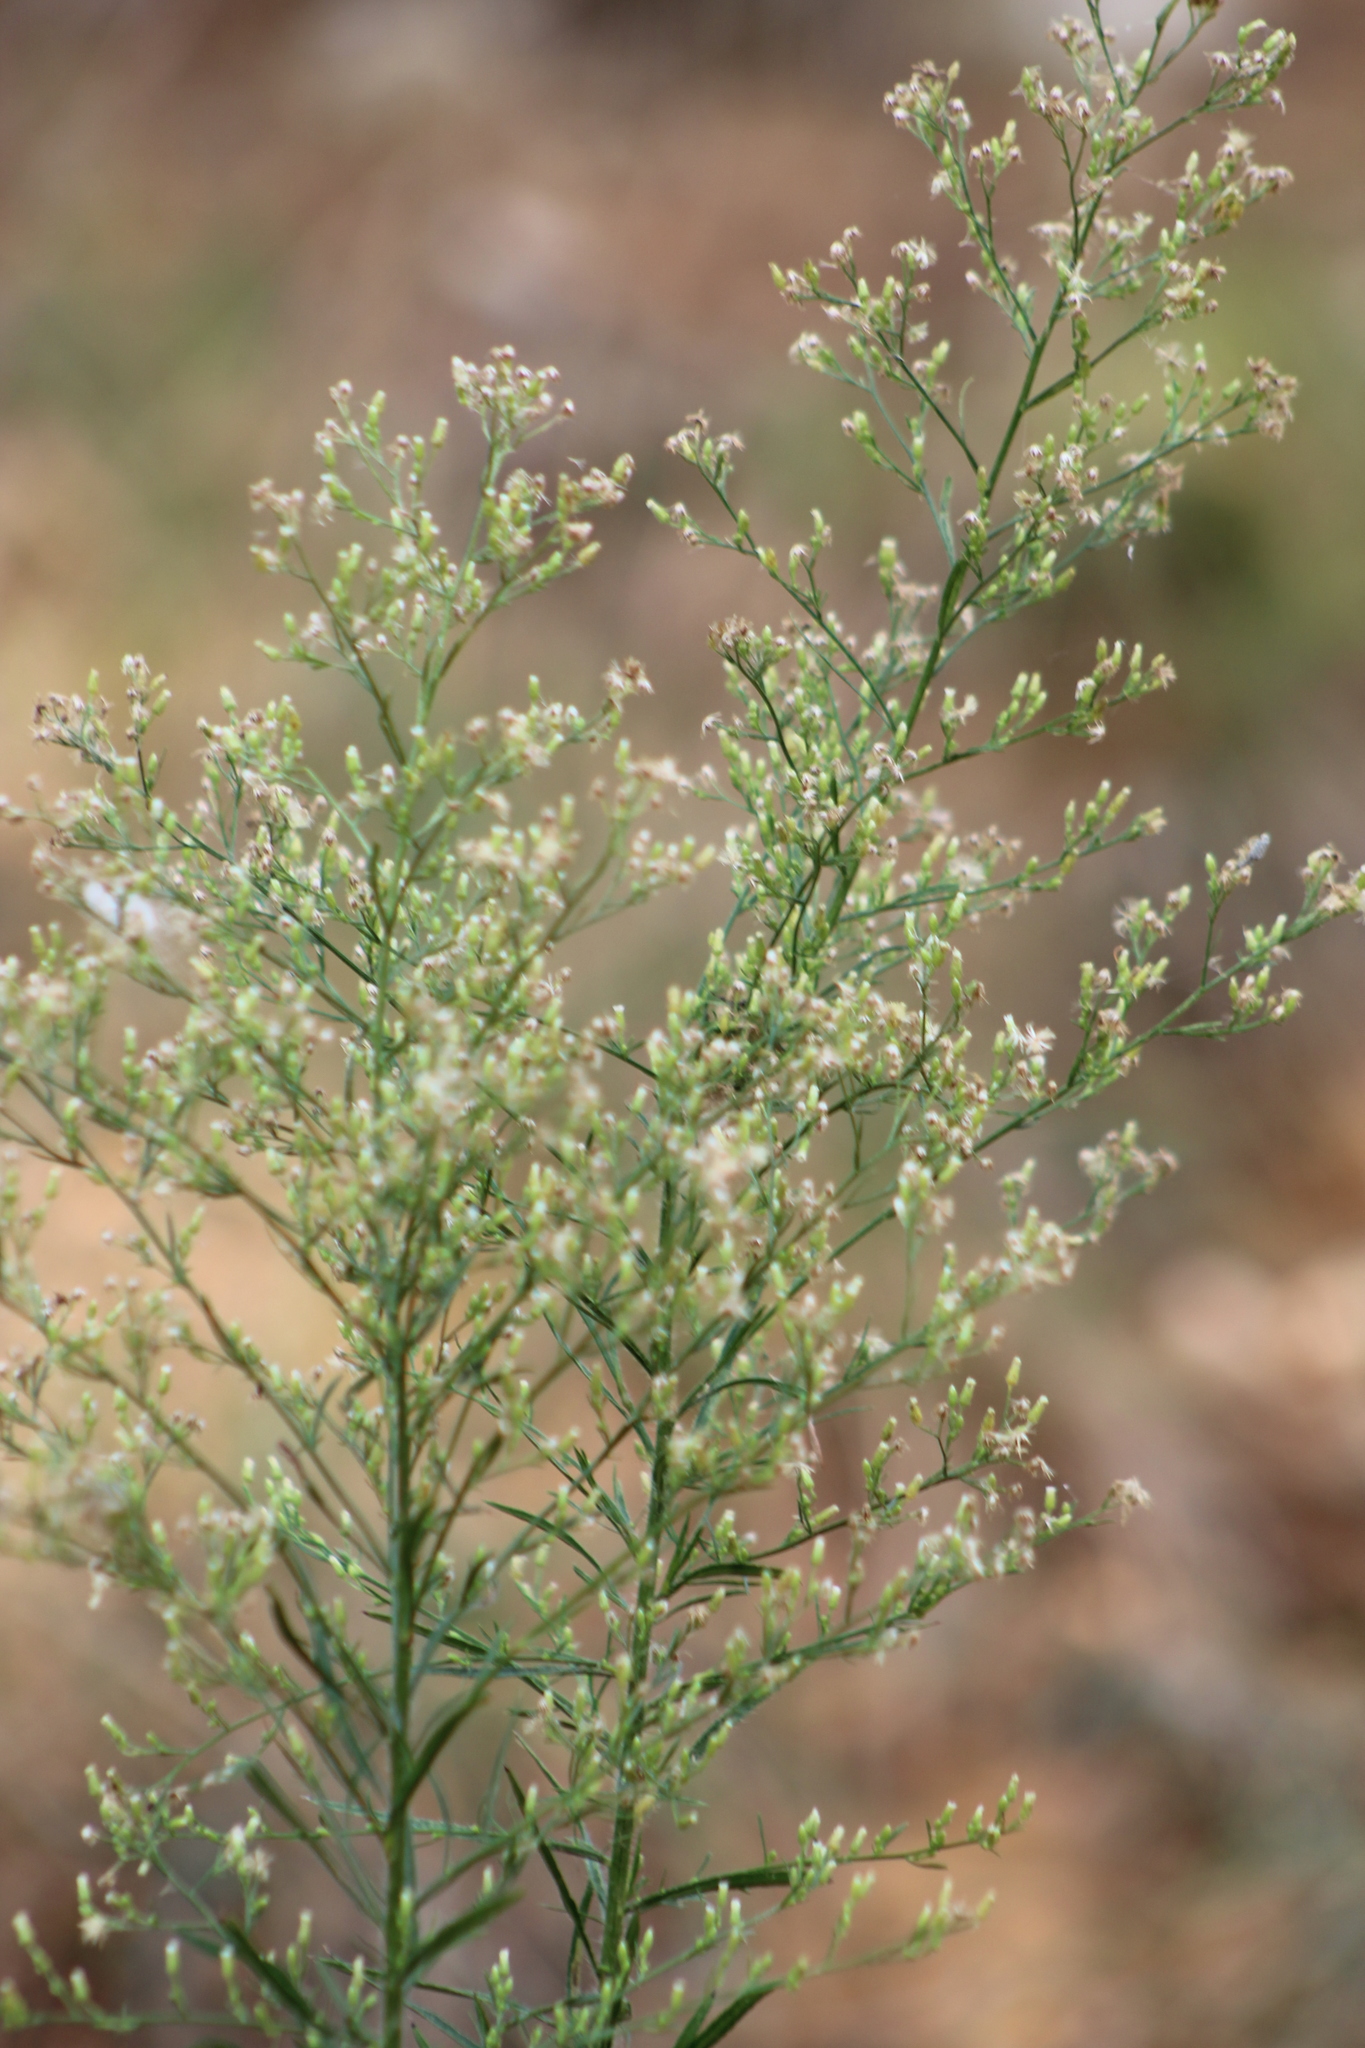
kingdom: Plantae
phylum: Tracheophyta
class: Magnoliopsida
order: Asterales
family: Asteraceae
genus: Erigeron
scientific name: Erigeron canadensis
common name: Canadian fleabane
